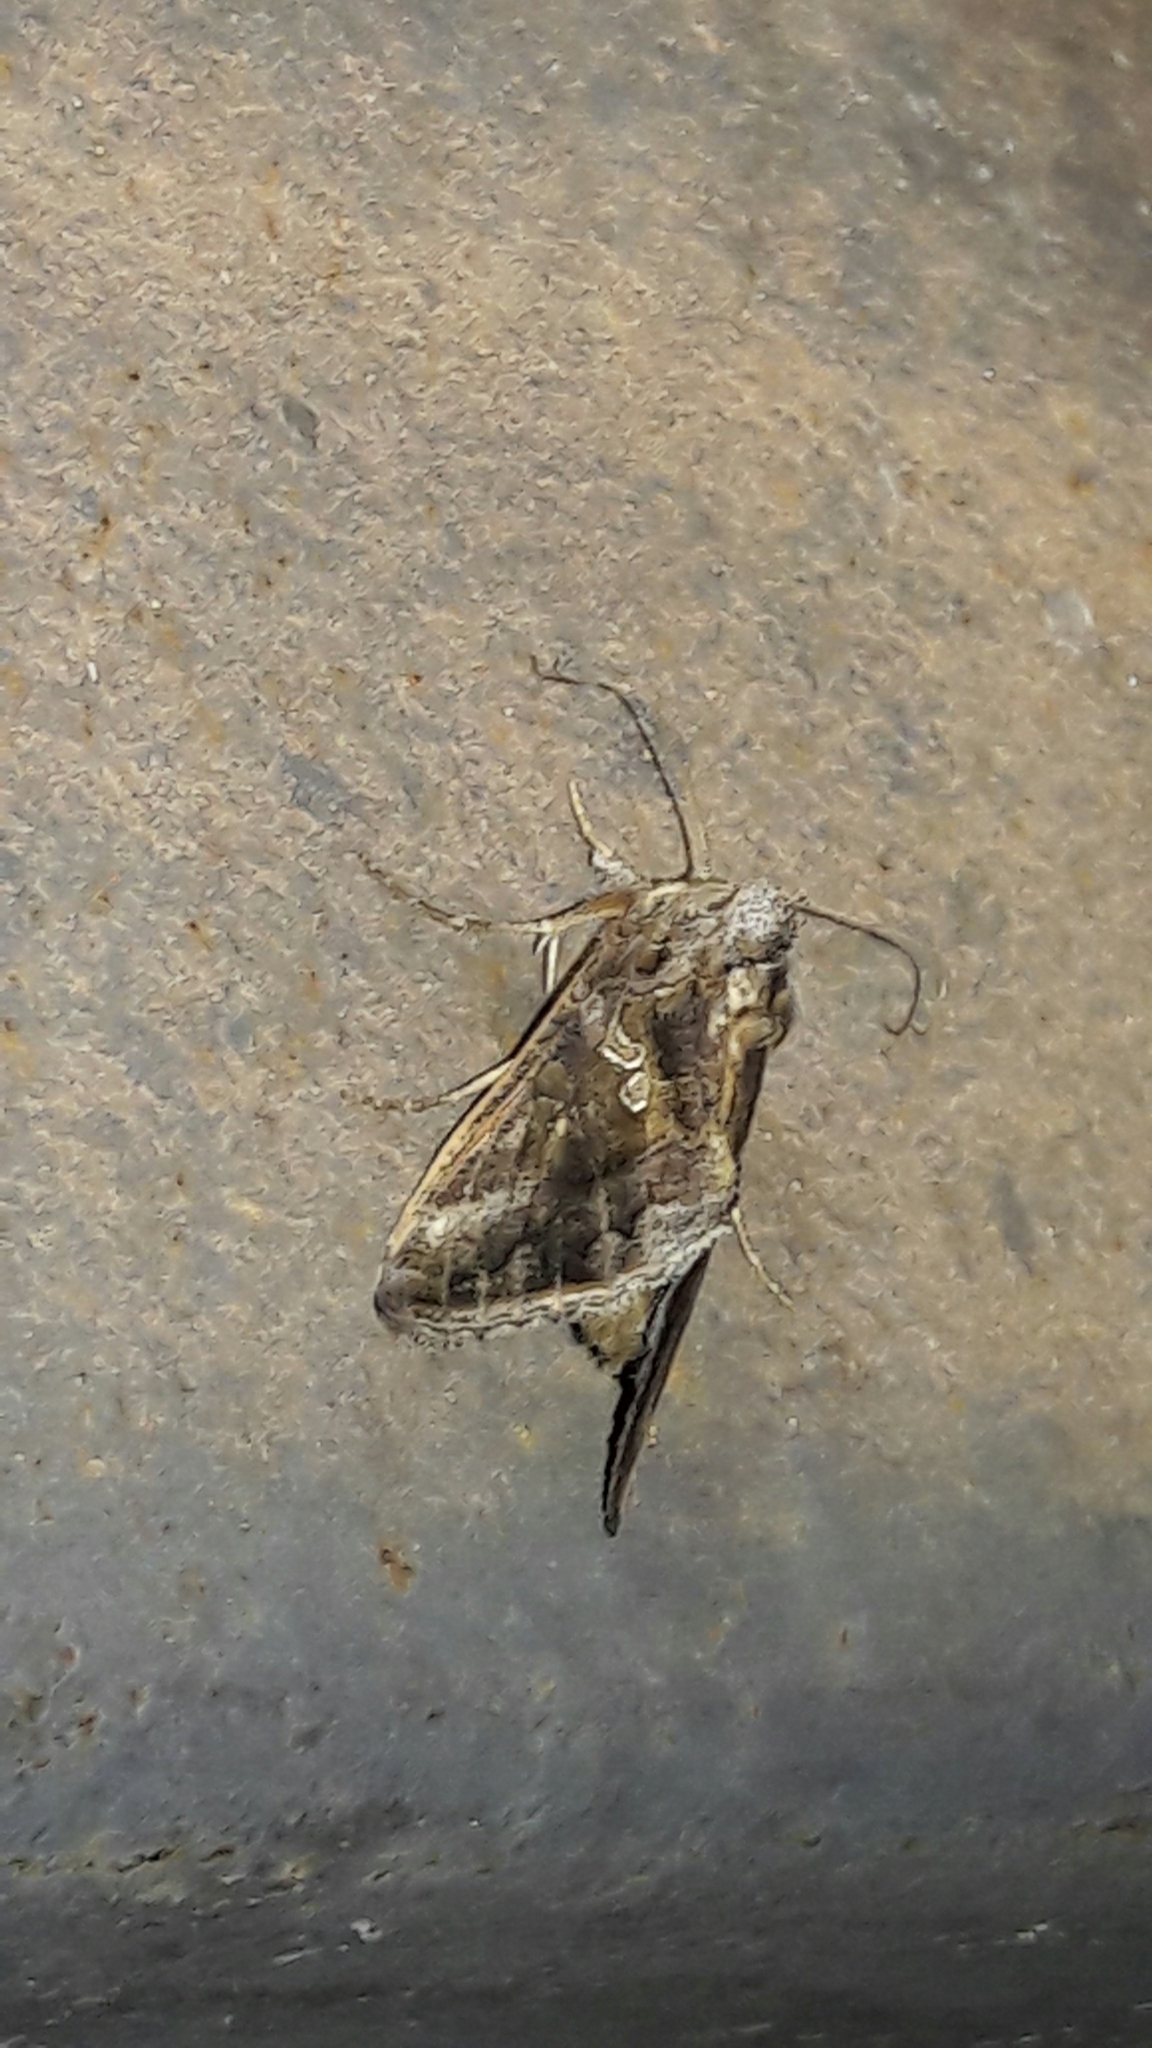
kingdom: Animalia
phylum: Arthropoda
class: Insecta
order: Lepidoptera
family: Noctuidae
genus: Chrysodeixis
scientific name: Chrysodeixis includens
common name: Cutworm moth
